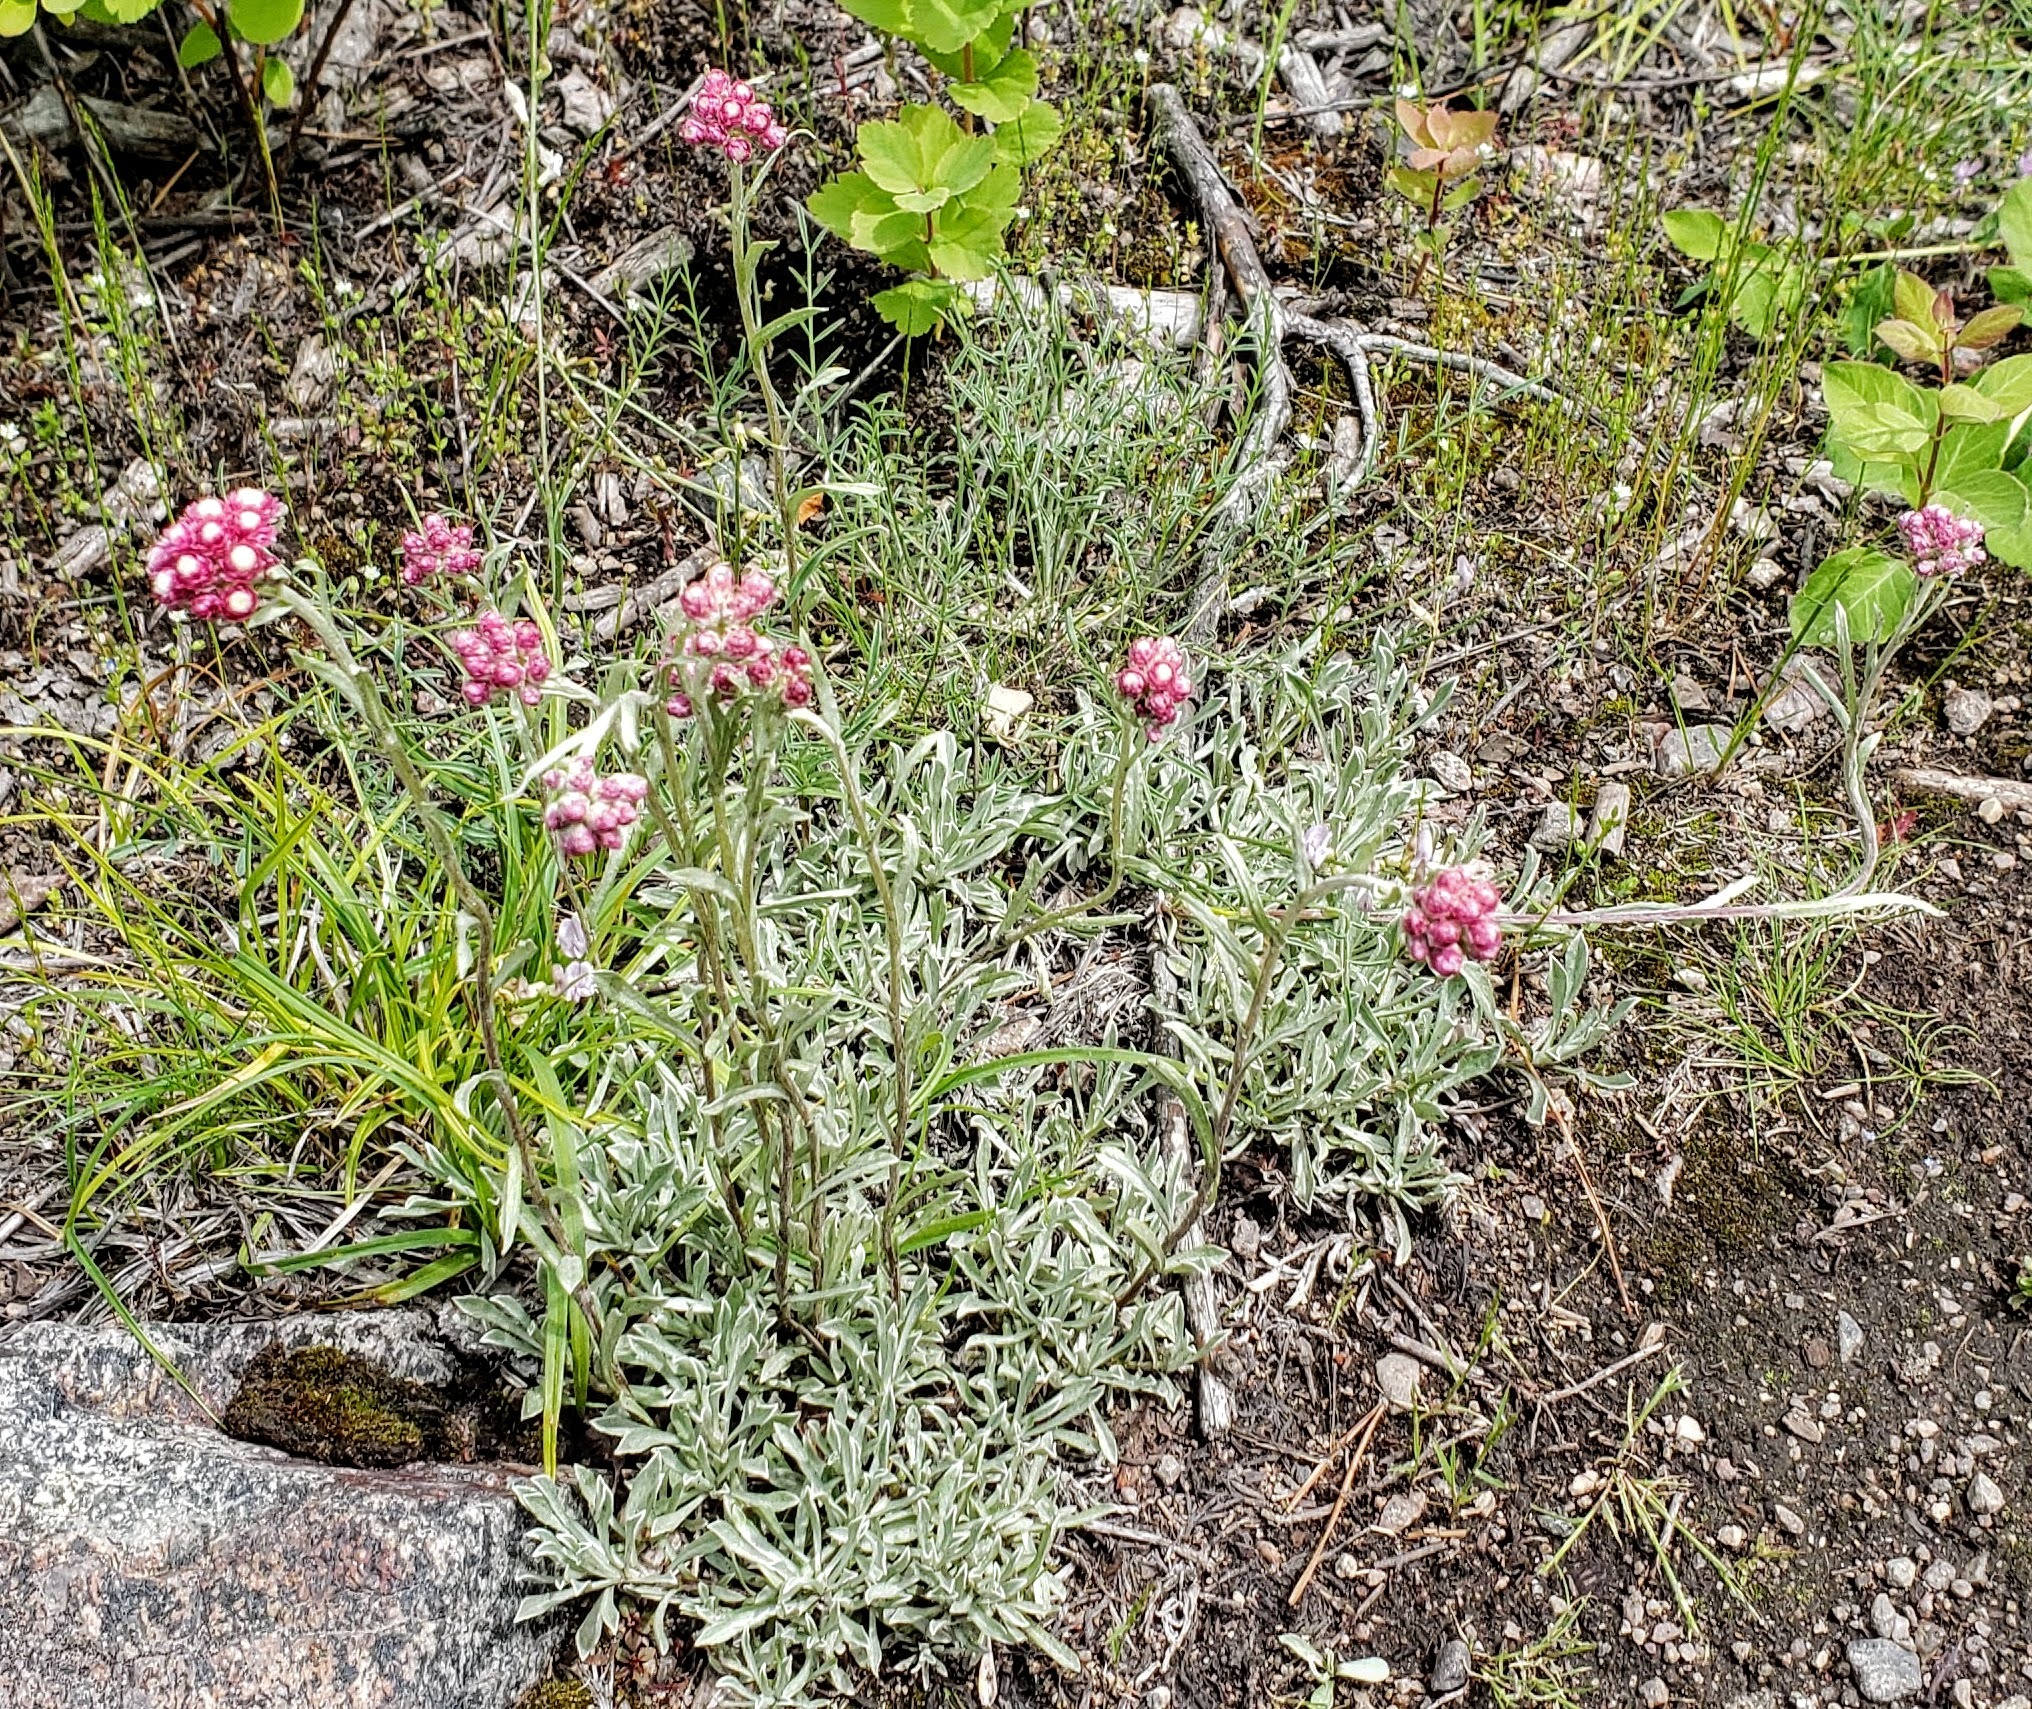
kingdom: Plantae
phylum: Tracheophyta
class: Magnoliopsida
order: Asterales
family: Asteraceae
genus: Antennaria
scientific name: Antennaria rosea
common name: Rosy pussytoes
